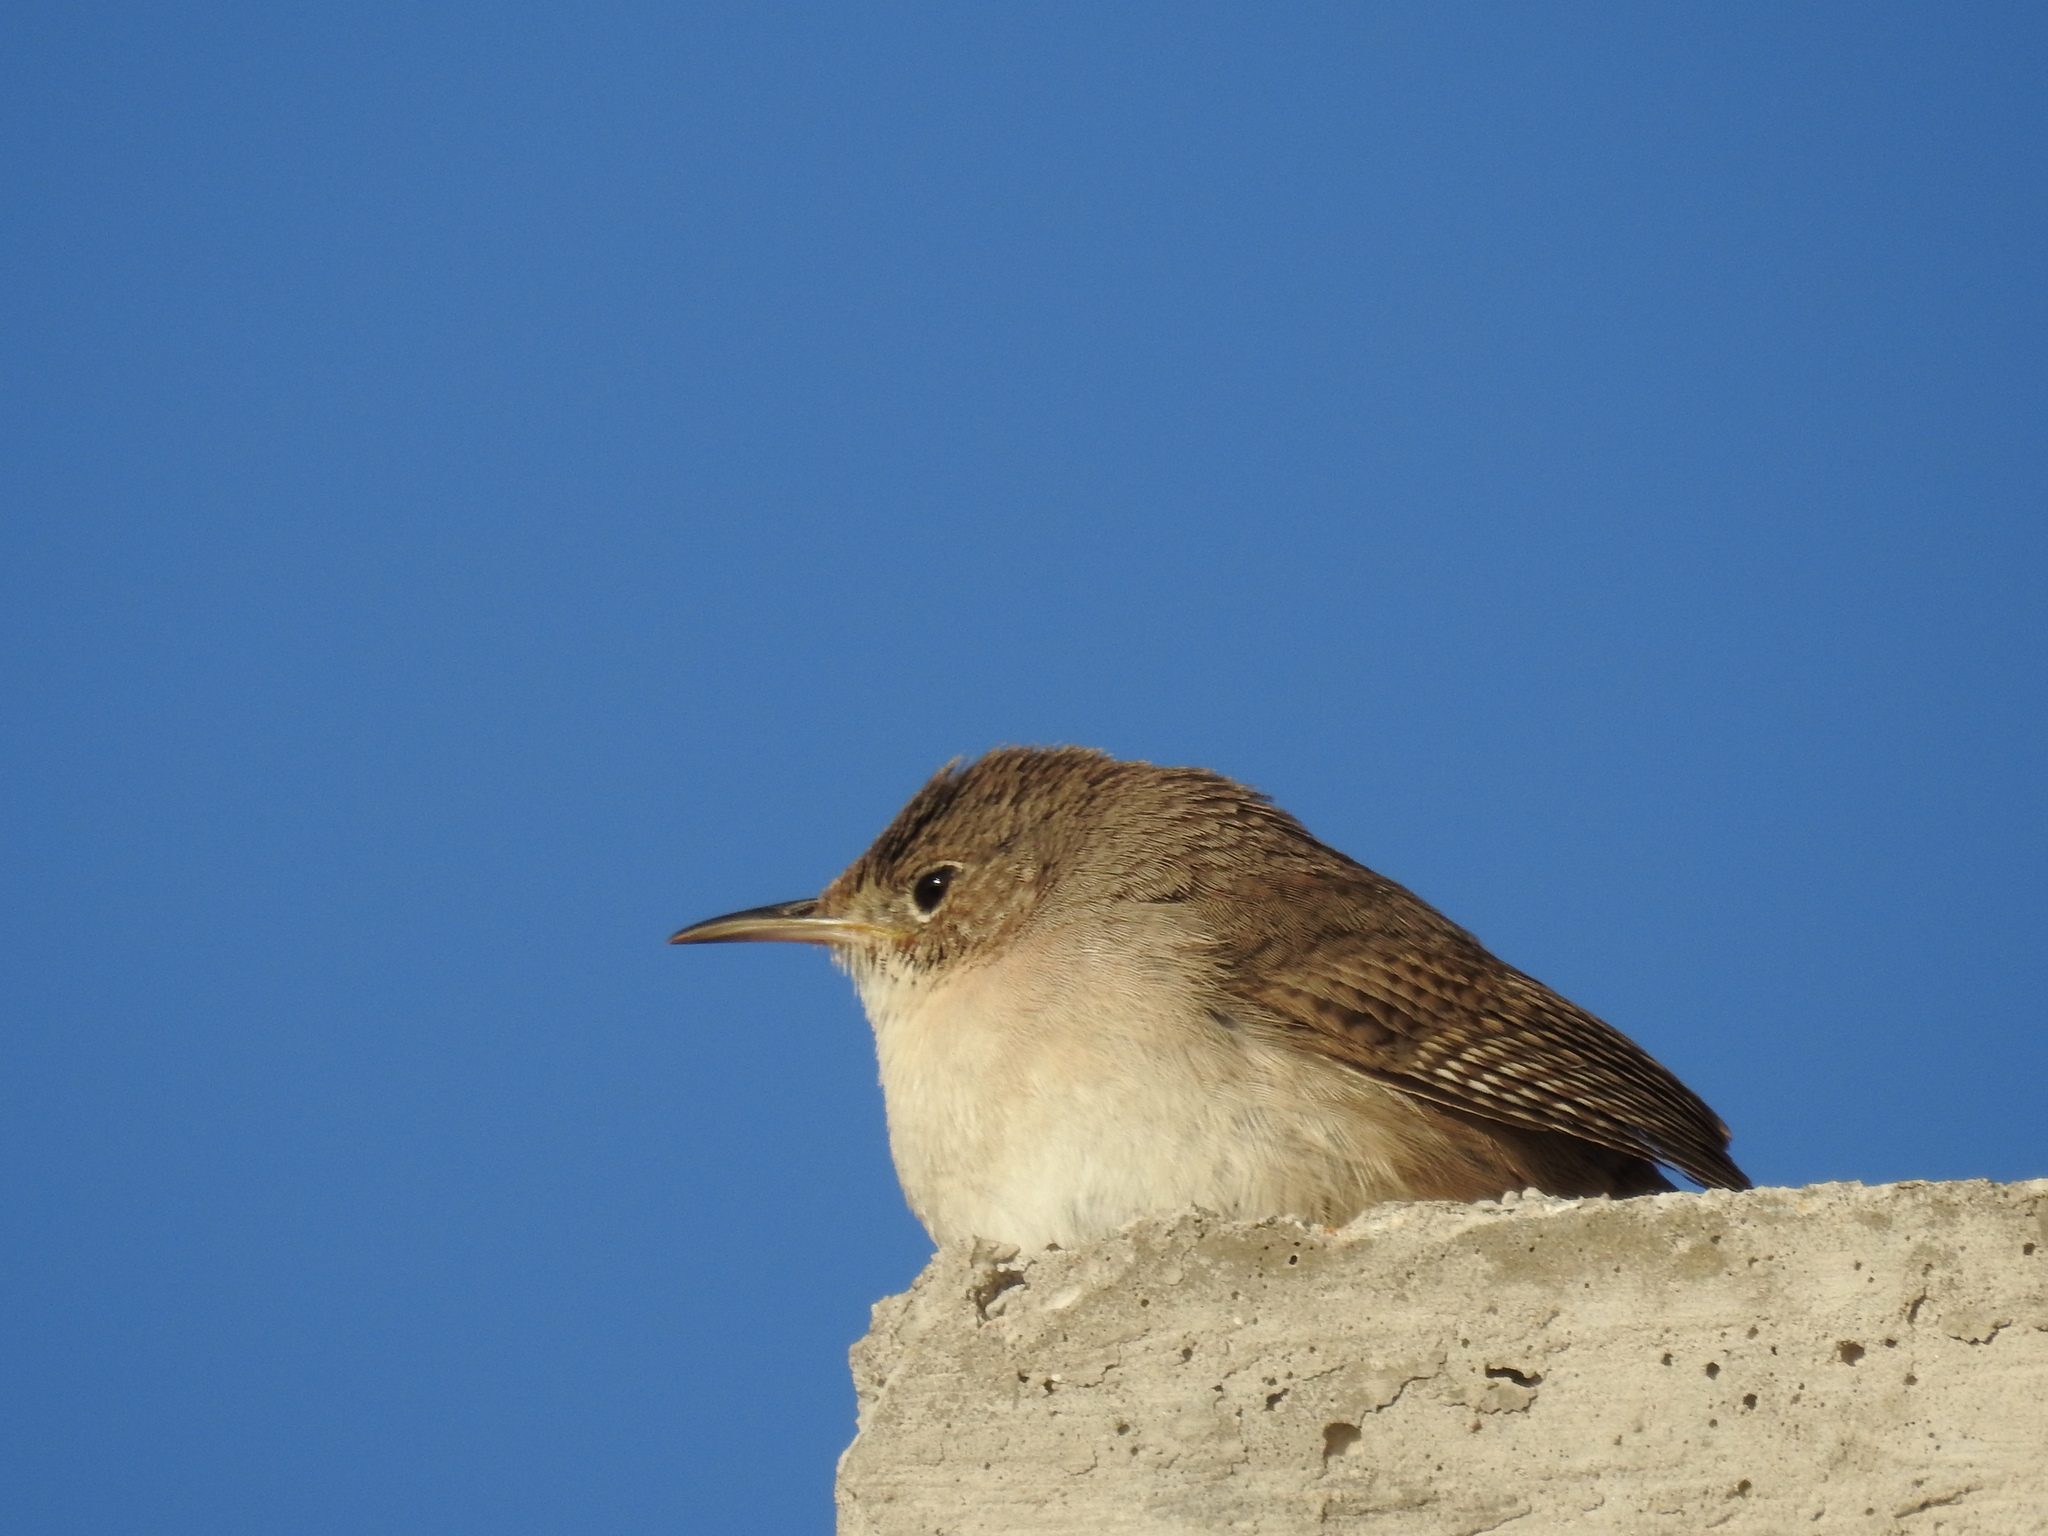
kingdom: Animalia
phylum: Chordata
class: Aves
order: Passeriformes
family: Troglodytidae
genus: Troglodytes
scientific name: Troglodytes aedon
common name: House wren
